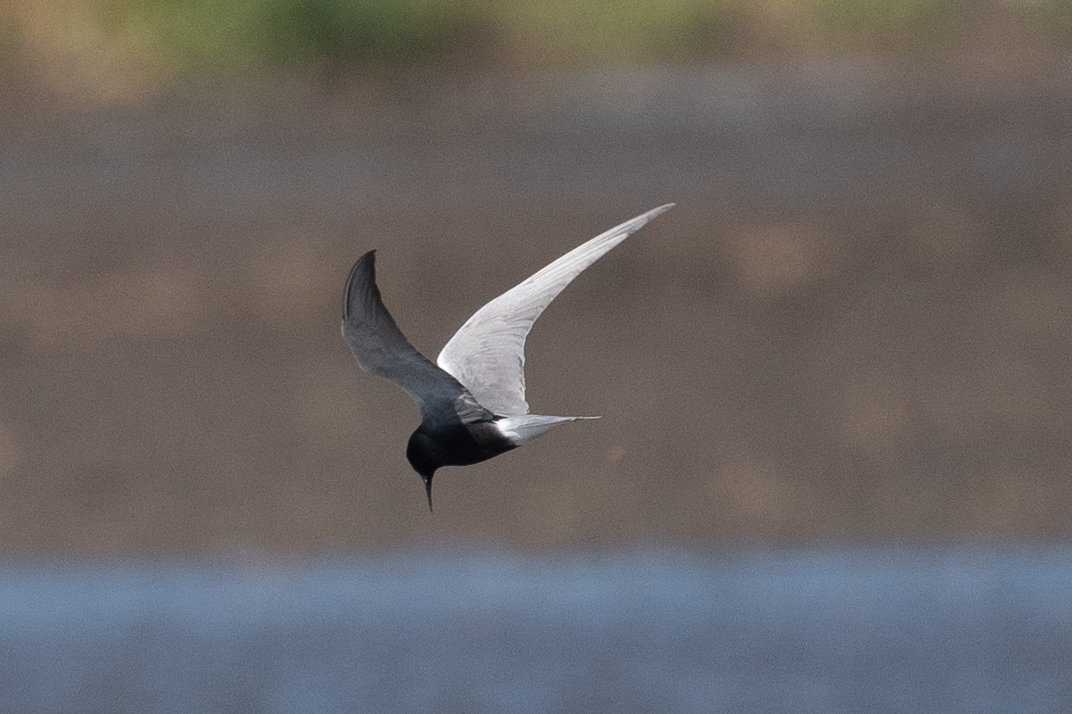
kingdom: Animalia
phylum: Chordata
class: Aves
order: Charadriiformes
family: Laridae
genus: Chlidonias
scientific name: Chlidonias niger
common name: Black tern
